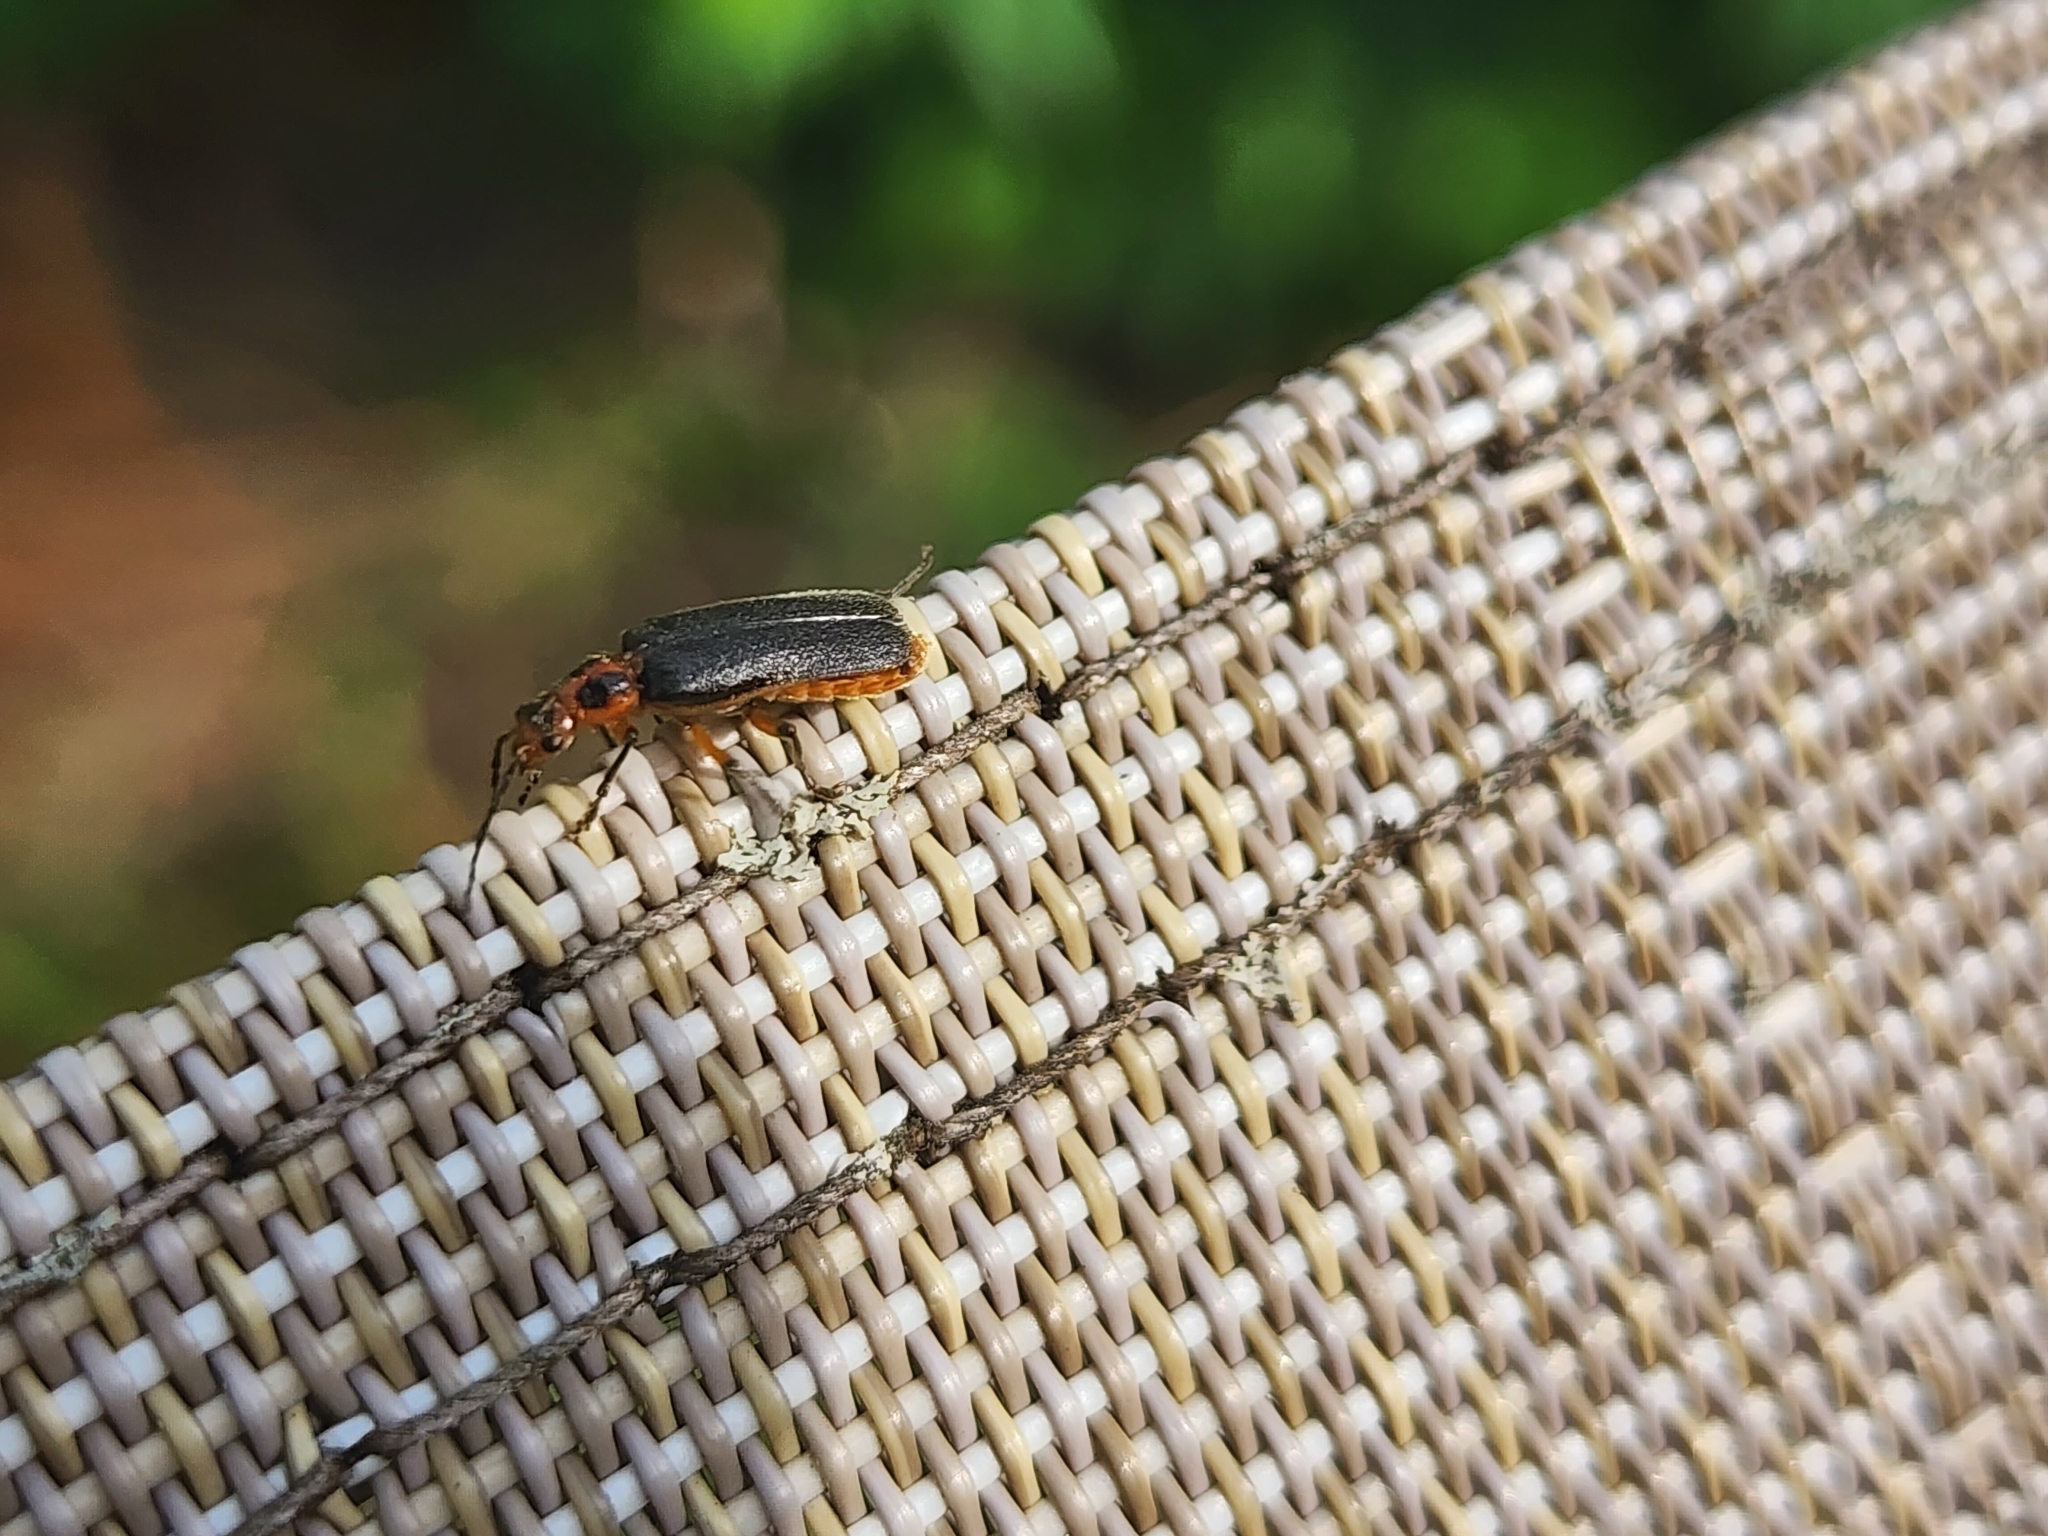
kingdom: Animalia
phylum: Arthropoda
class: Insecta
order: Coleoptera
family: Cantharidae
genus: Atalantycha
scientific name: Atalantycha bilineata
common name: Two-lined leatherwing
